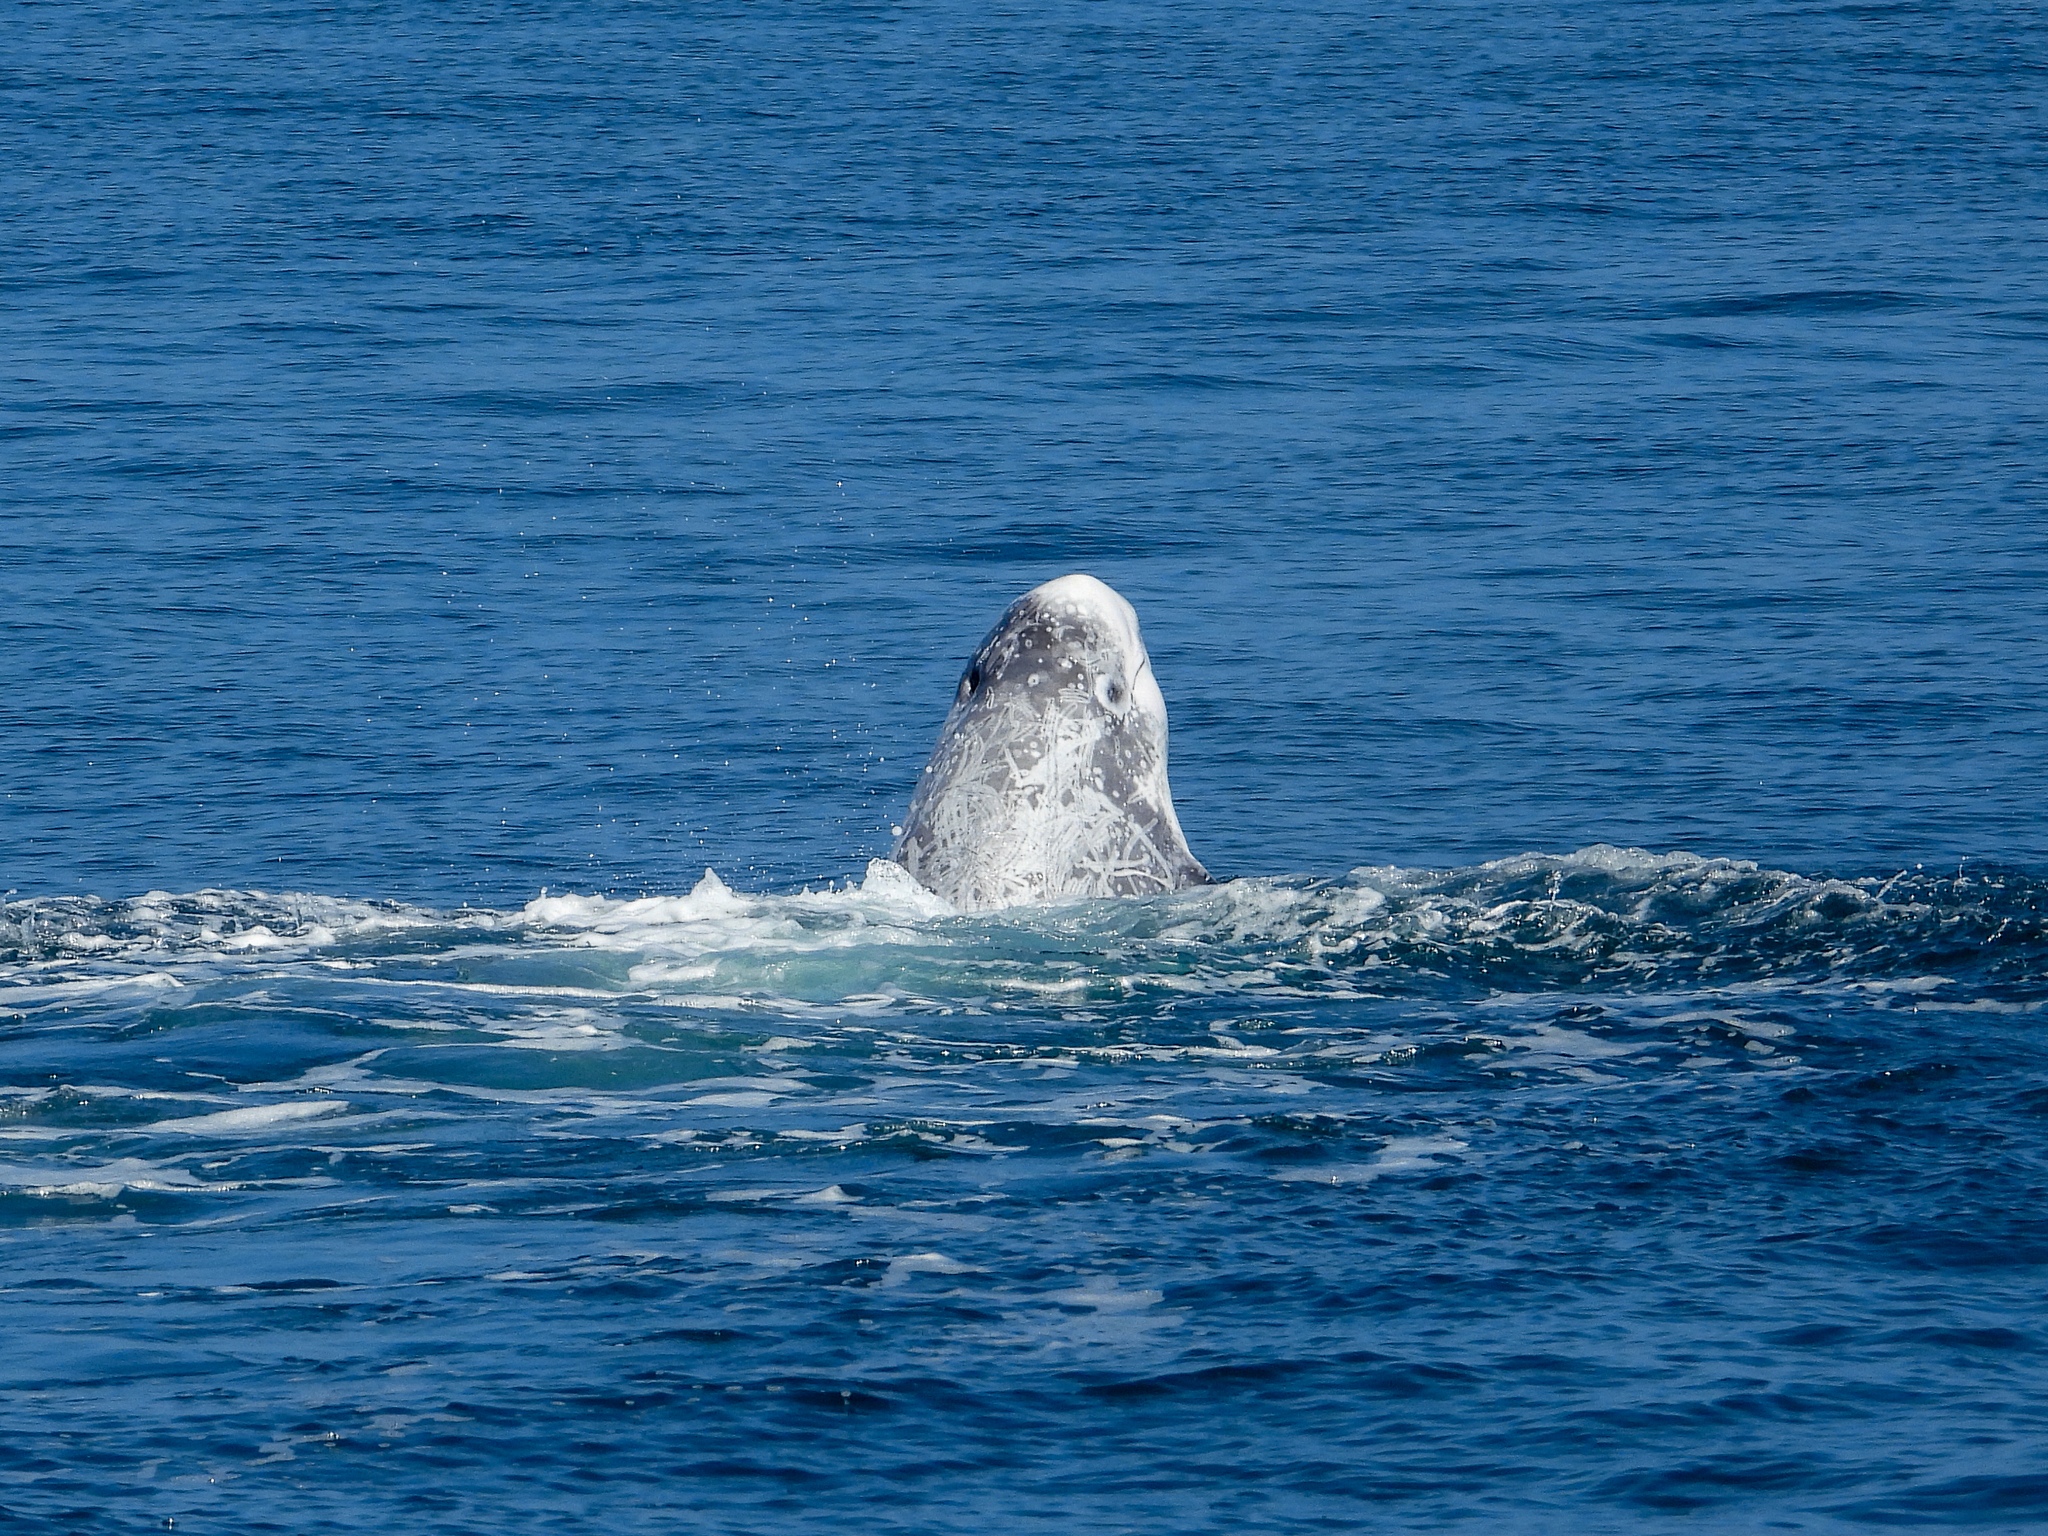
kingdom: Animalia
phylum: Chordata
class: Mammalia
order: Cetacea
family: Delphinidae
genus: Grampus
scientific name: Grampus griseus
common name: Risso's dolphin
